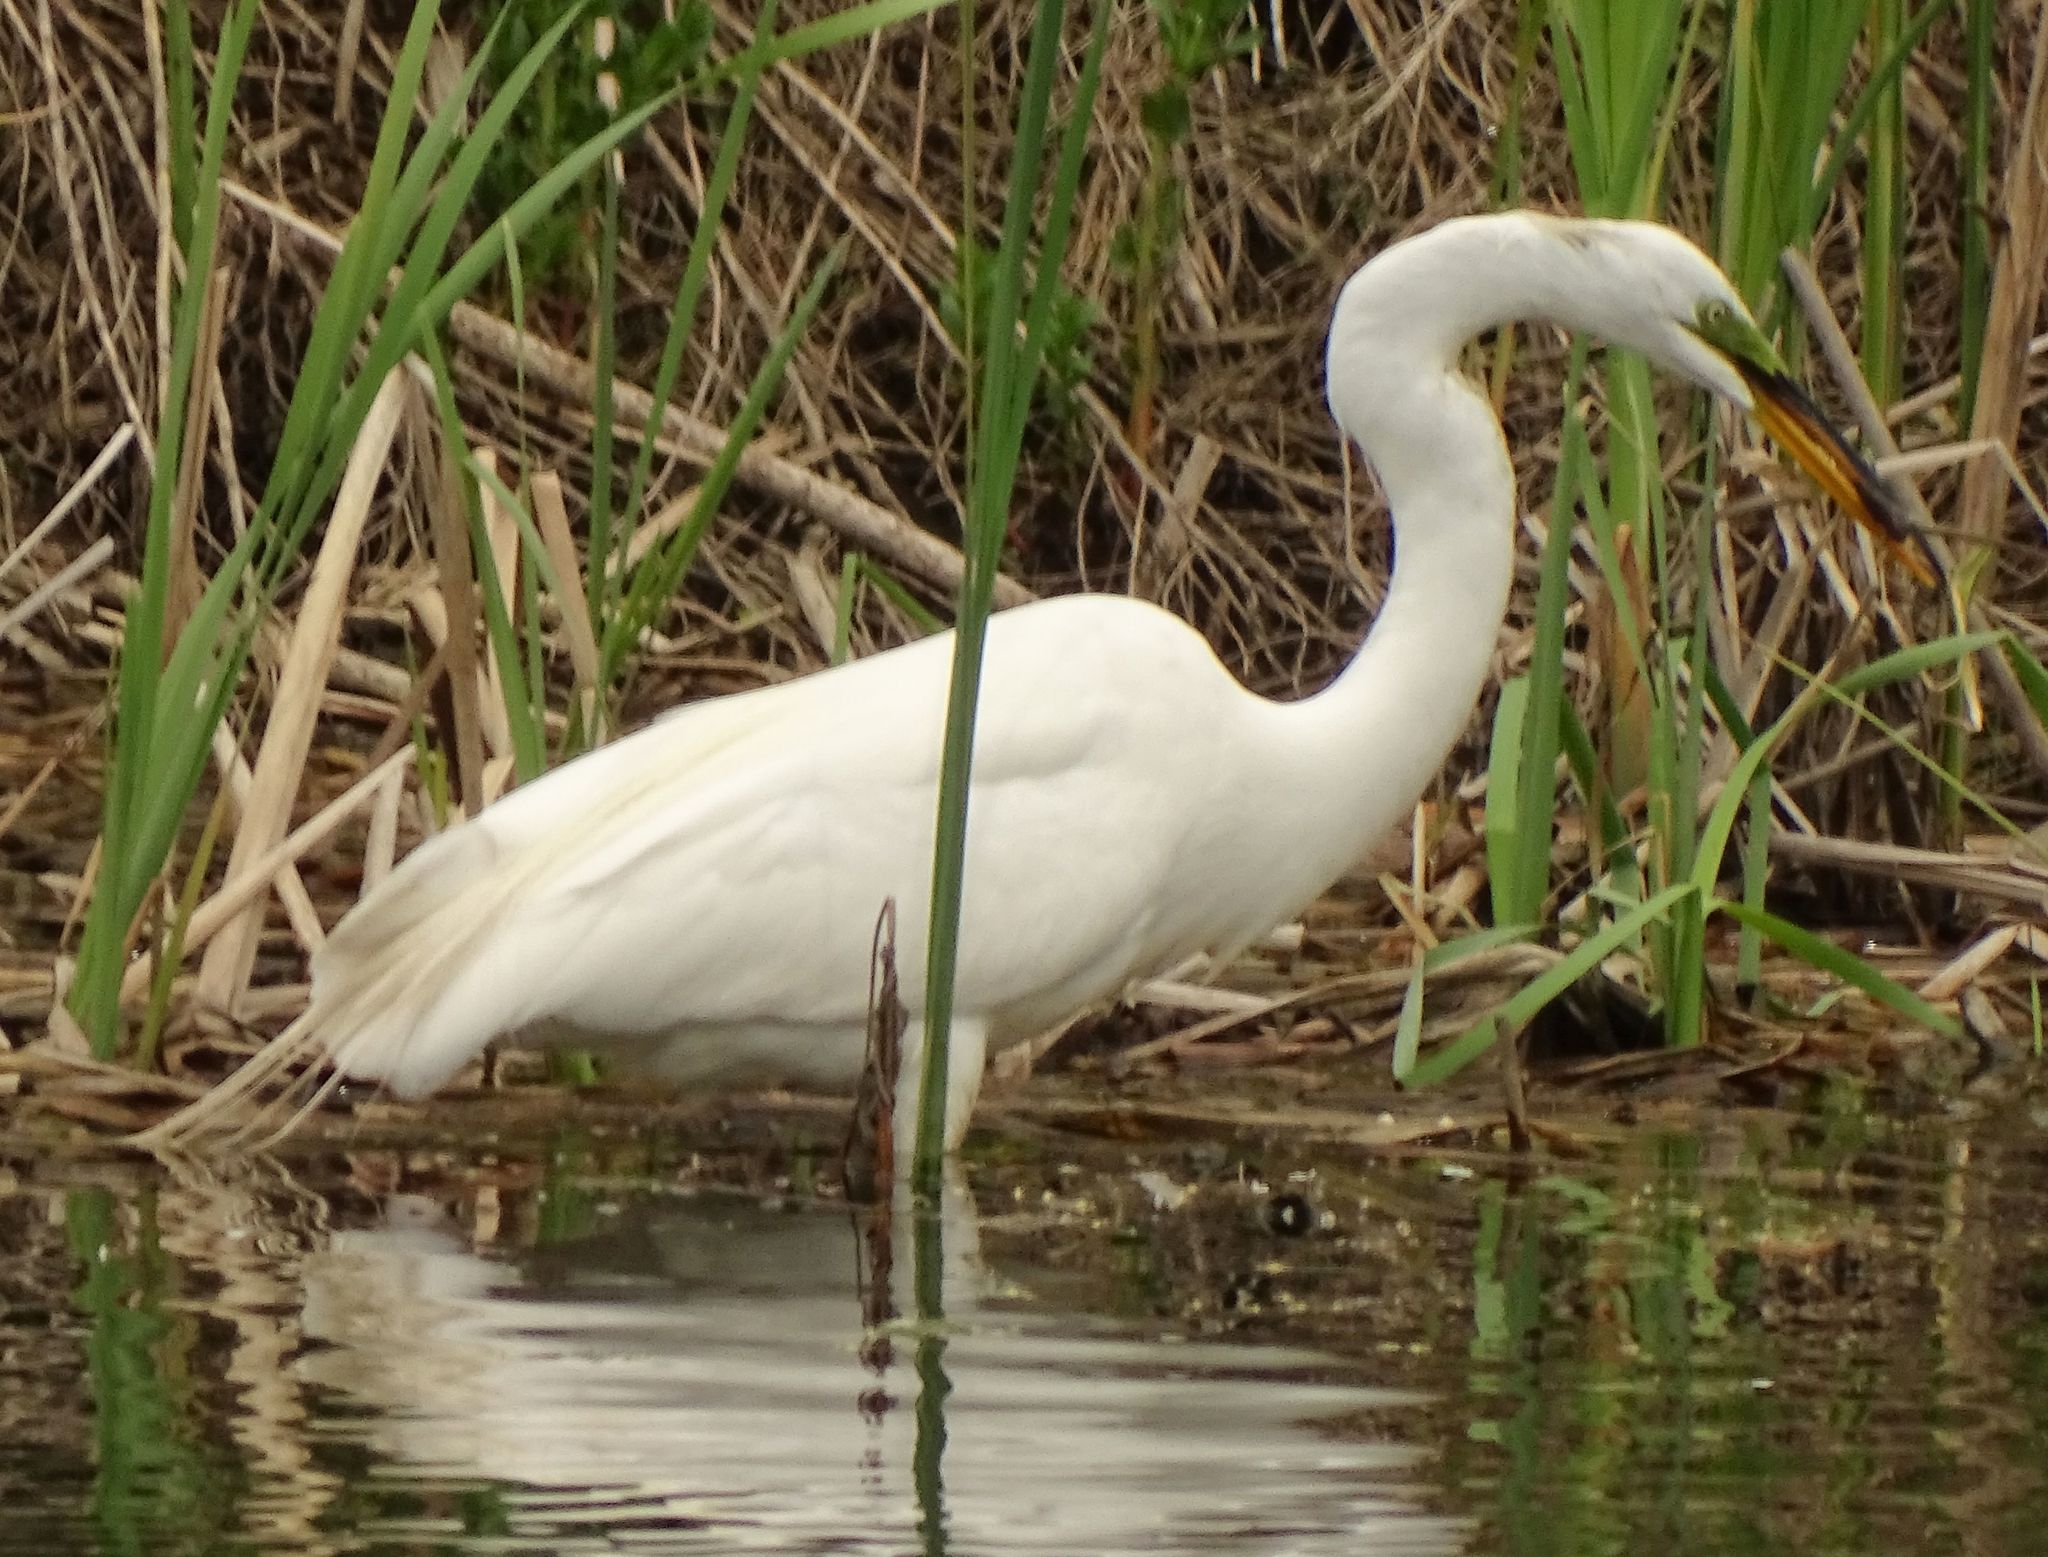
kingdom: Animalia
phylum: Chordata
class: Aves
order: Pelecaniformes
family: Ardeidae
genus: Ardea
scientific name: Ardea alba
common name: Great egret
